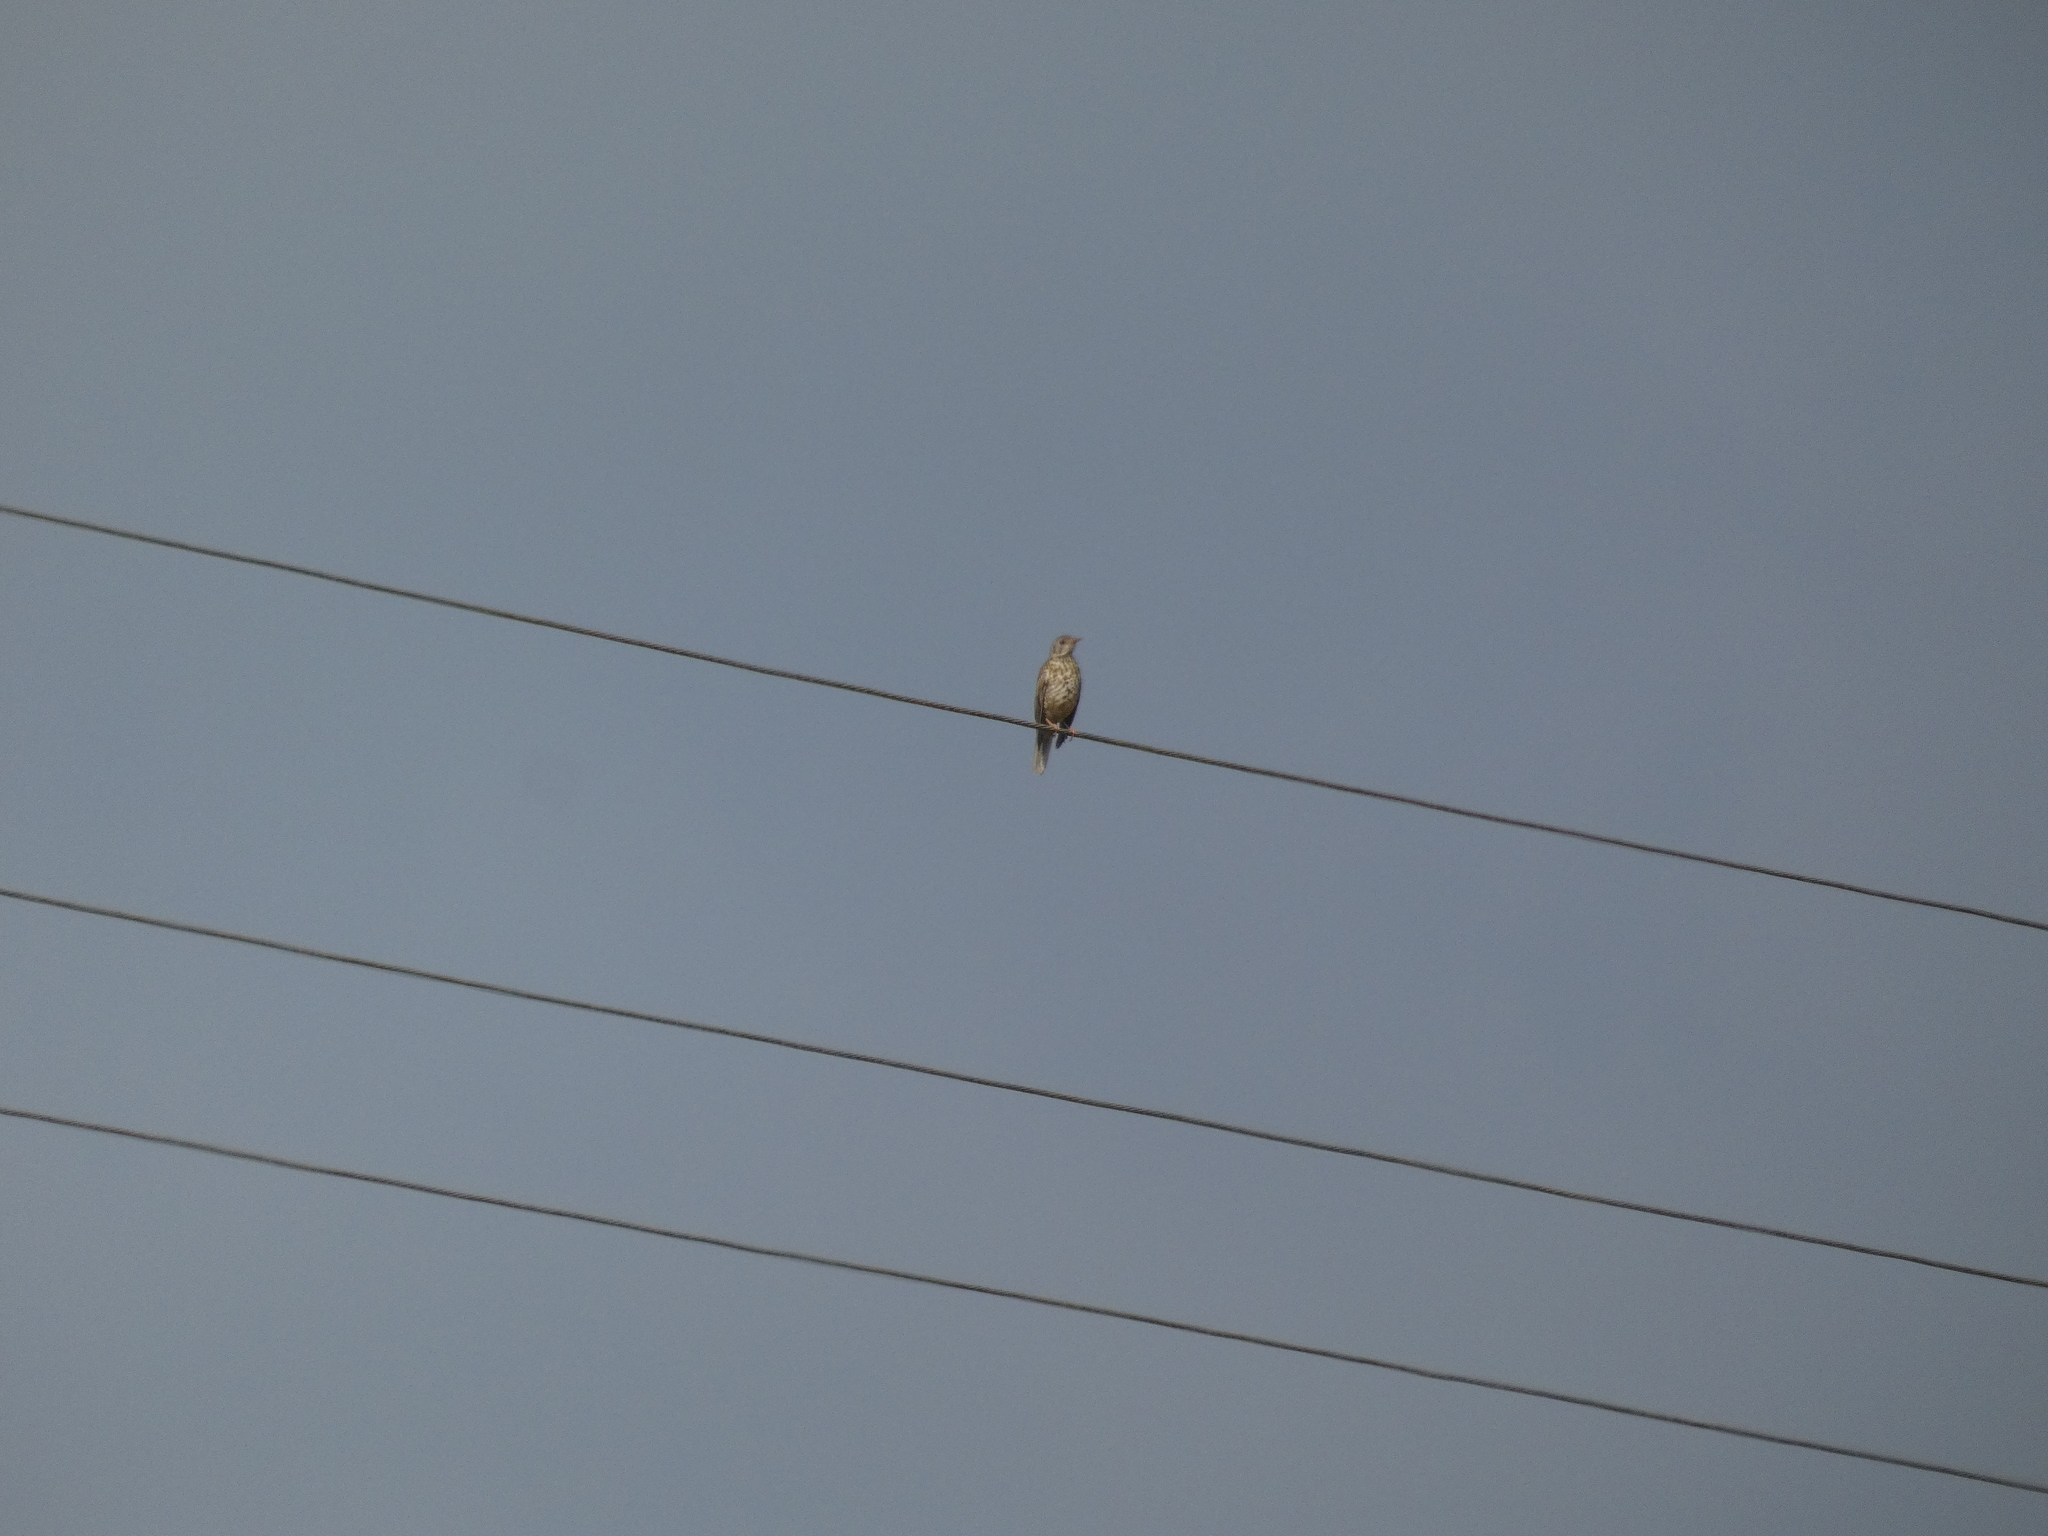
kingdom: Animalia
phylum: Chordata
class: Aves
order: Passeriformes
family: Turdidae
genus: Turdus
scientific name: Turdus viscivorus
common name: Mistle thrush
